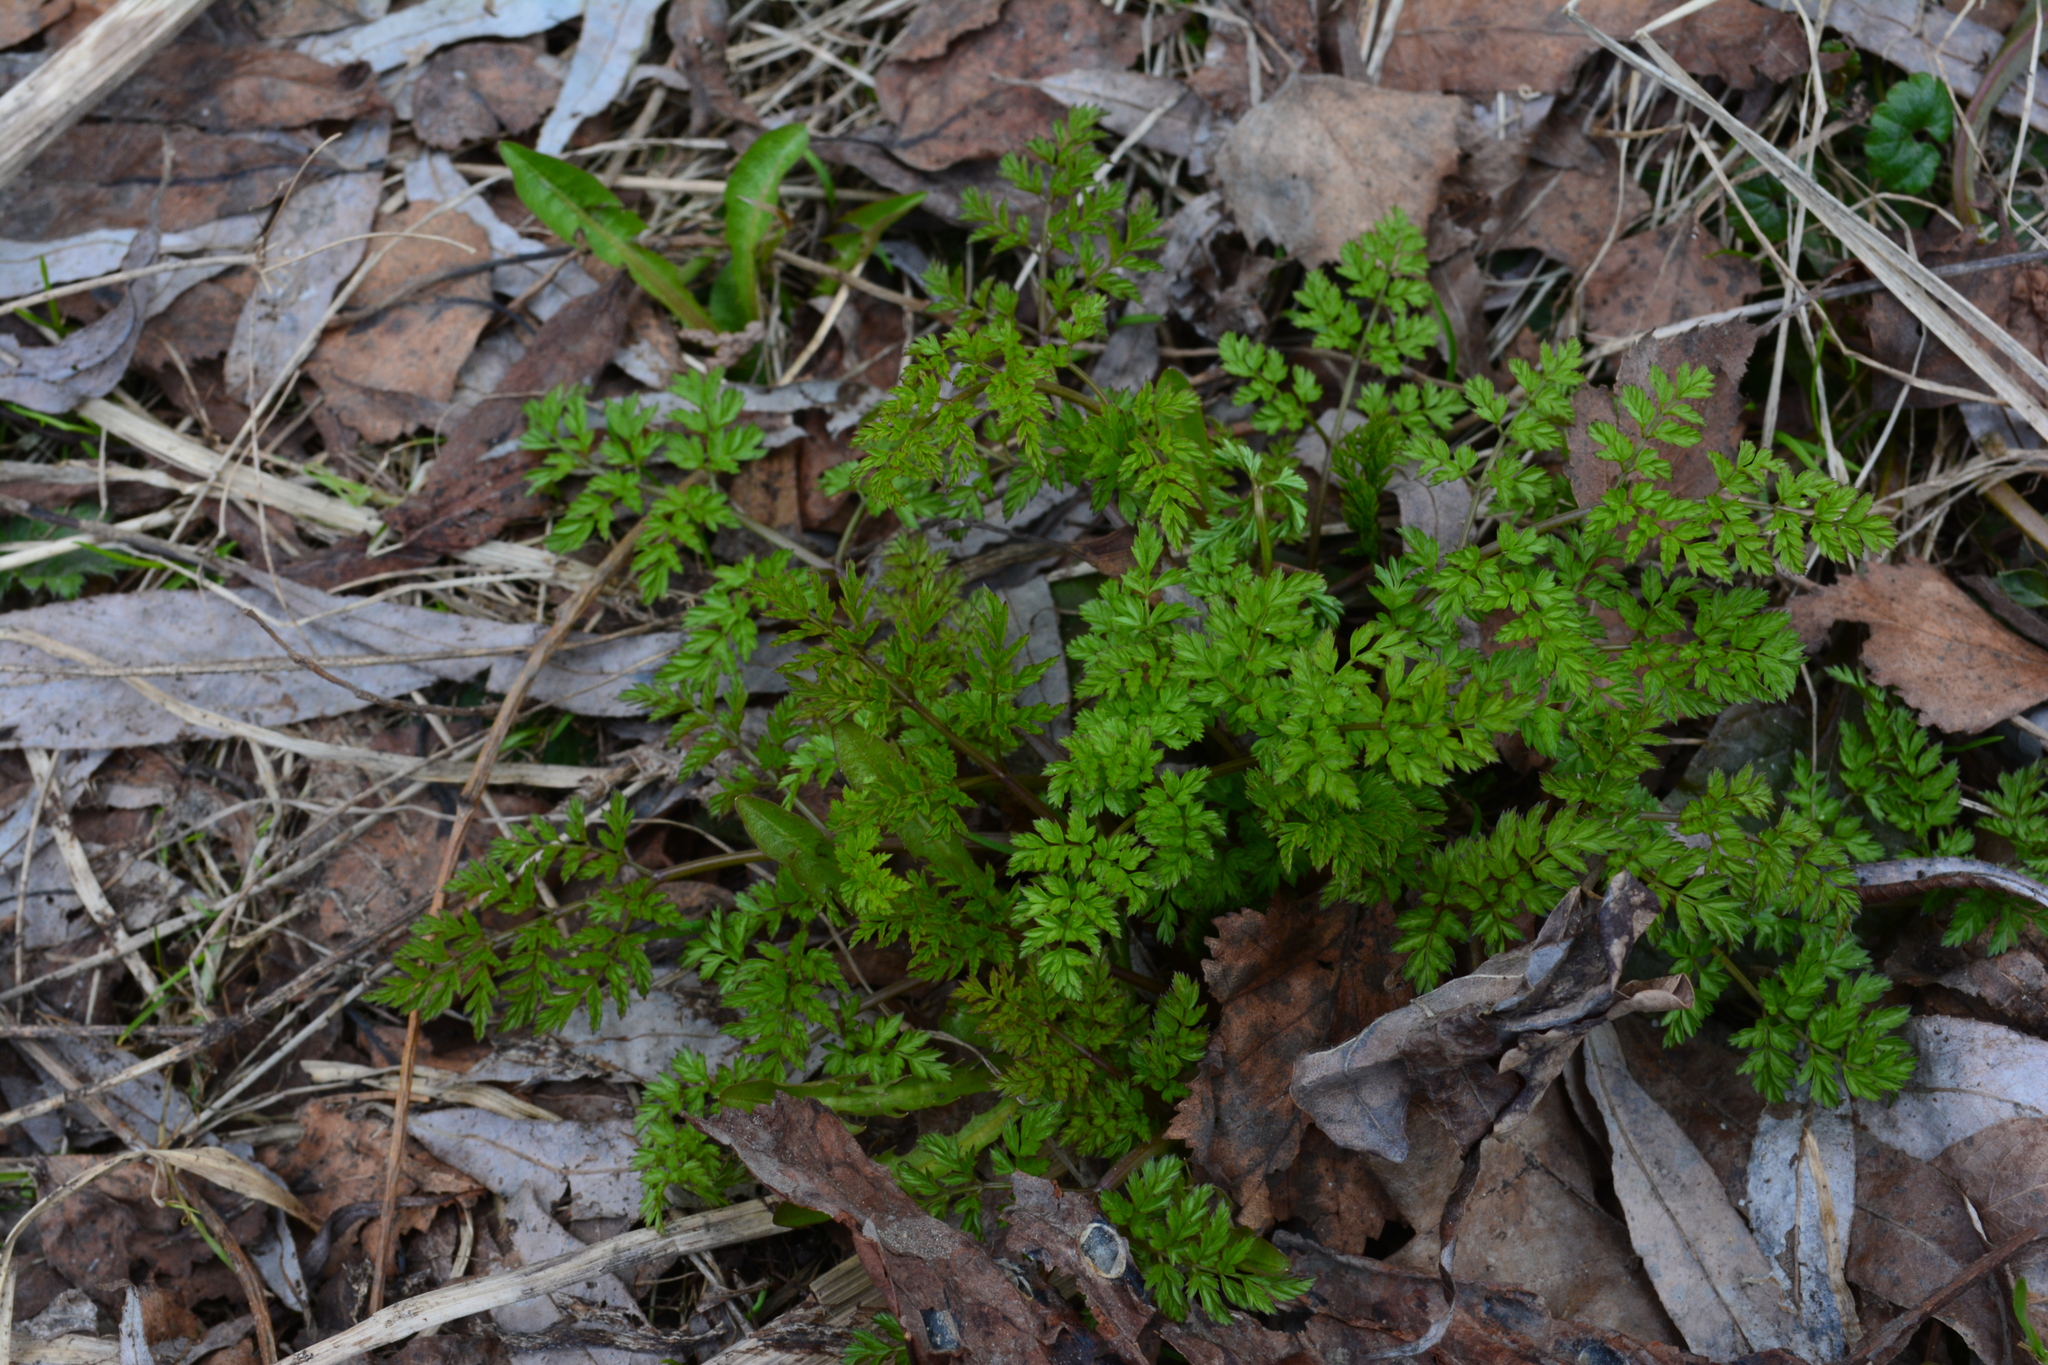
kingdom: Plantae
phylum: Tracheophyta
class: Magnoliopsida
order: Apiales
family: Apiaceae
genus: Anthriscus
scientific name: Anthriscus sylvestris
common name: Cow parsley
